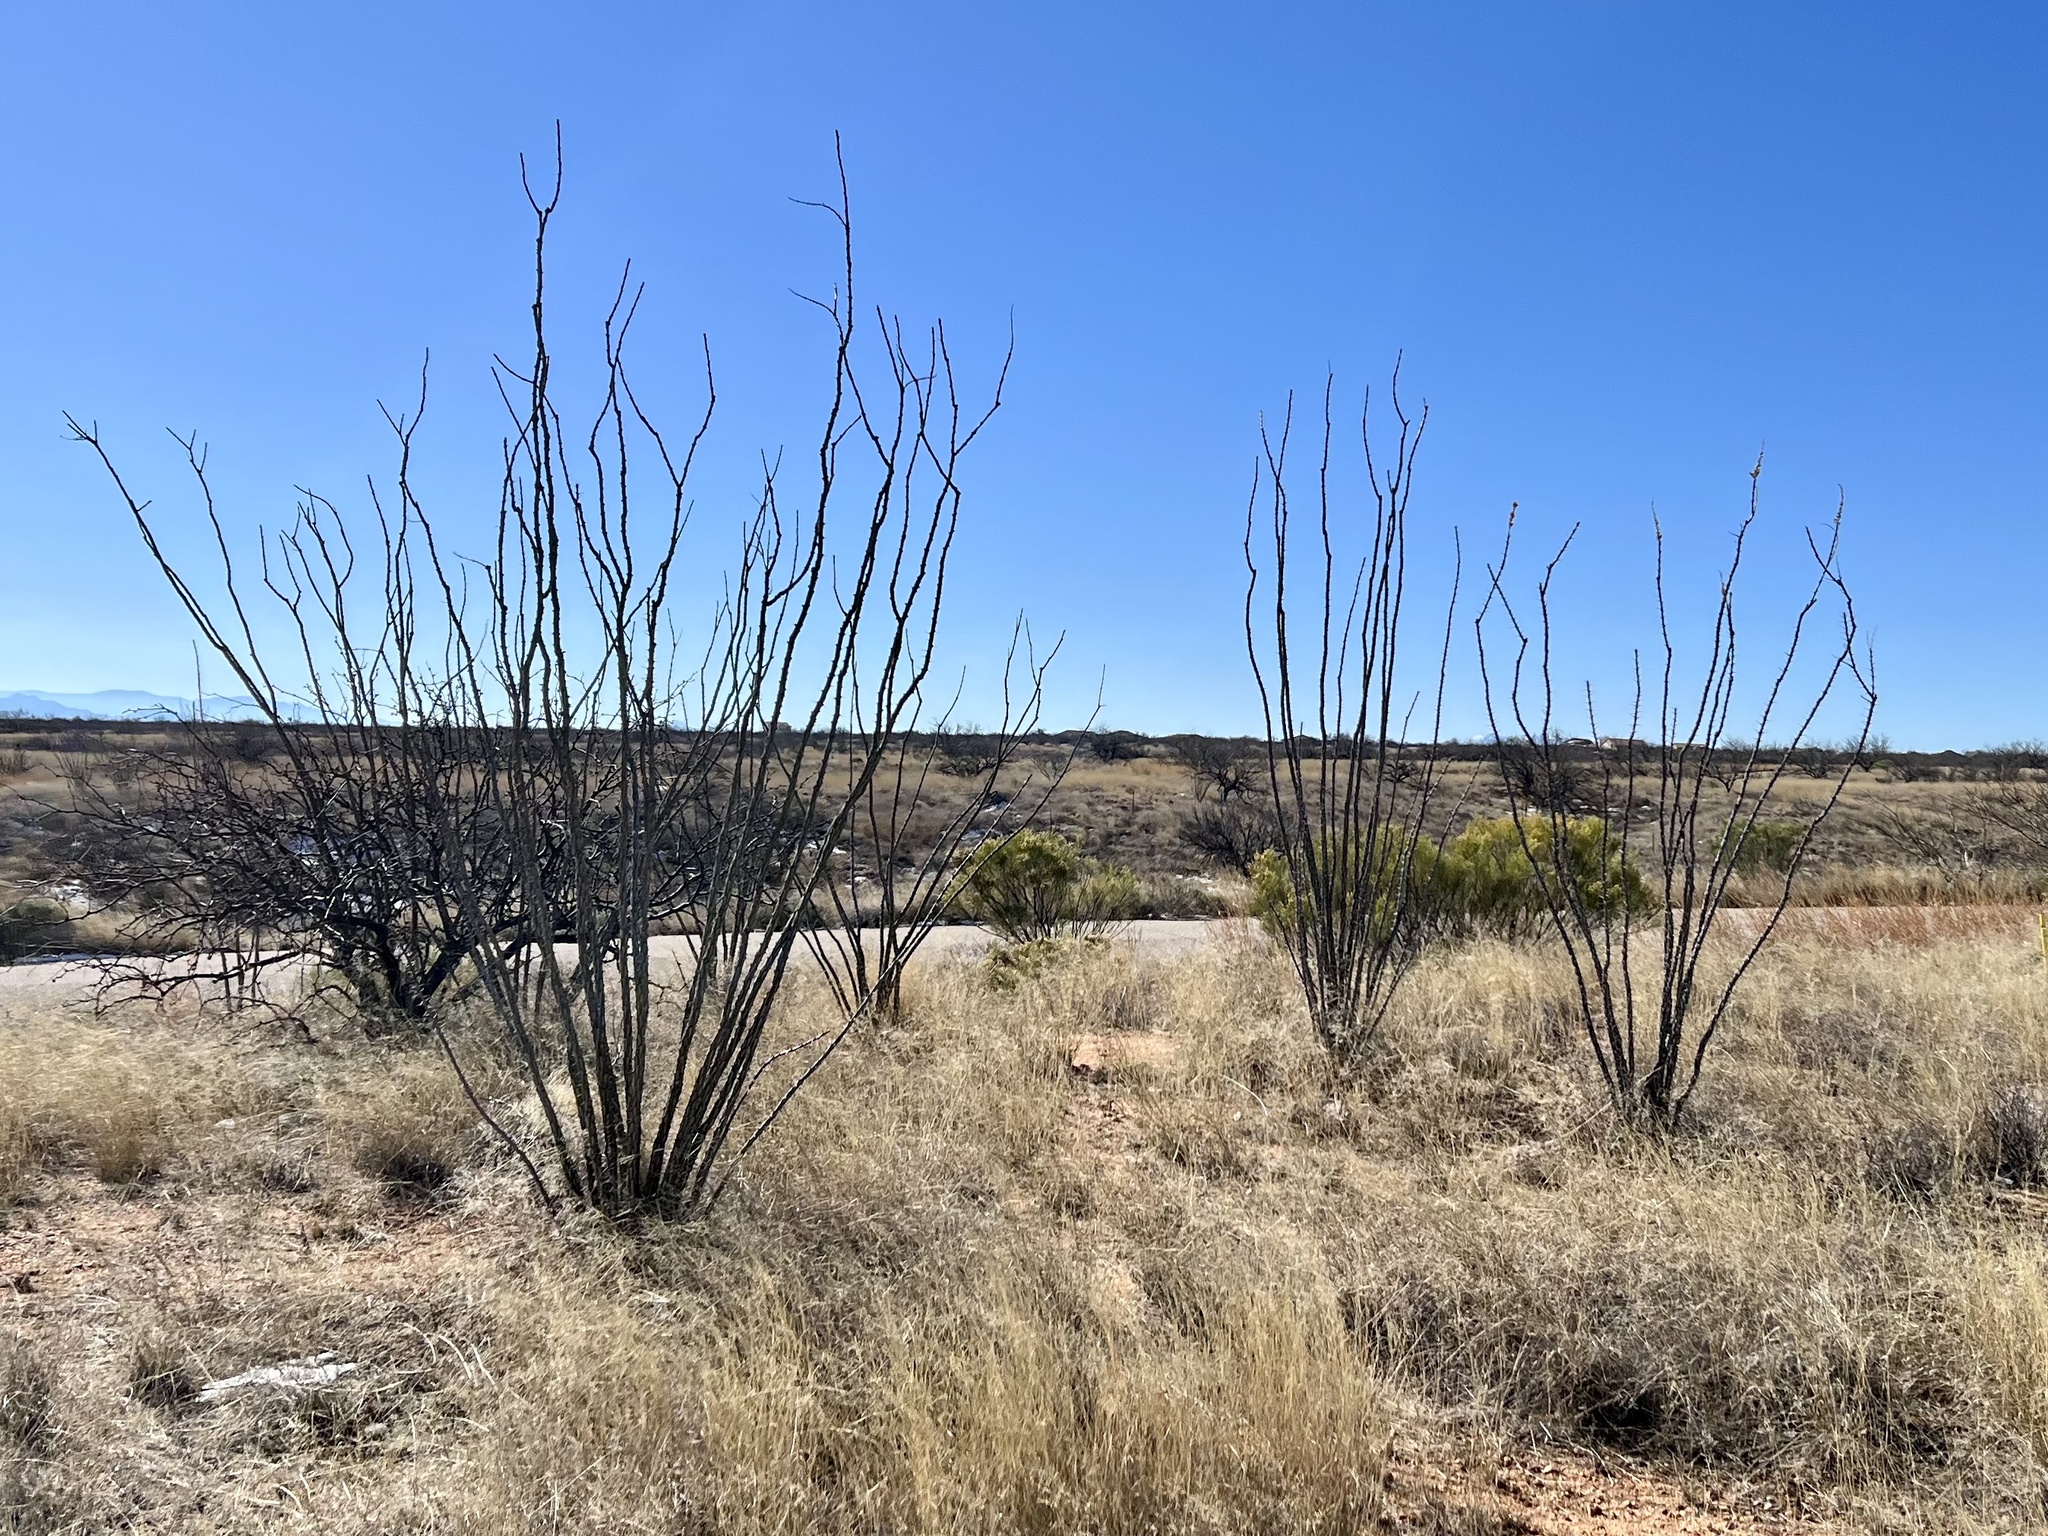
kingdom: Plantae
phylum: Tracheophyta
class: Magnoliopsida
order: Ericales
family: Fouquieriaceae
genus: Fouquieria
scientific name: Fouquieria splendens
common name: Vine-cactus
